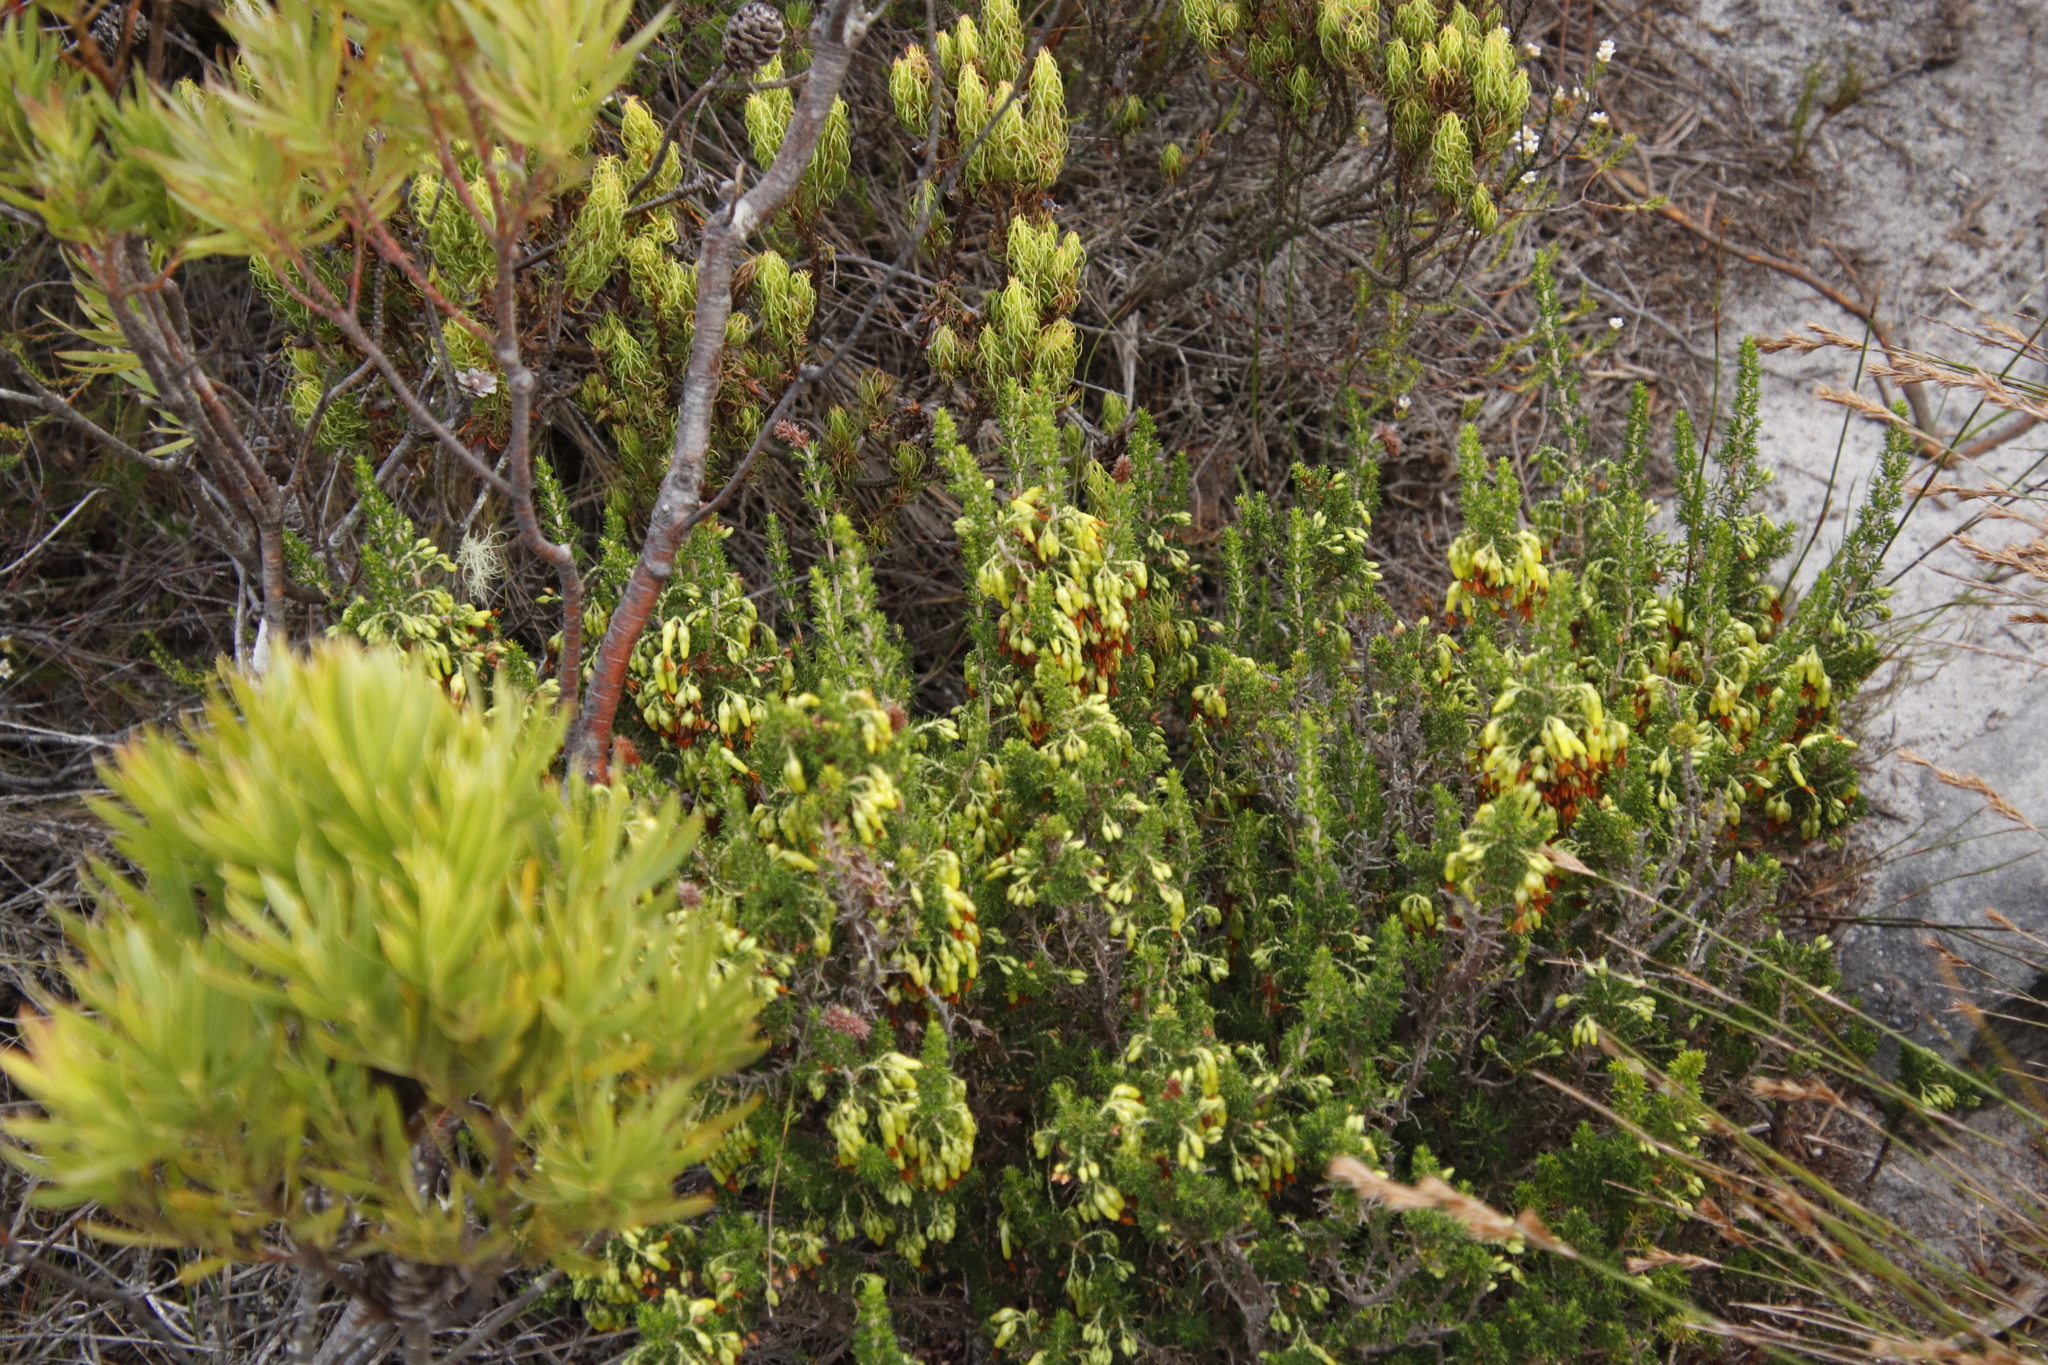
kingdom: Plantae
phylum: Tracheophyta
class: Magnoliopsida
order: Ericales
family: Ericaceae
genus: Erica
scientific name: Erica coccinea
